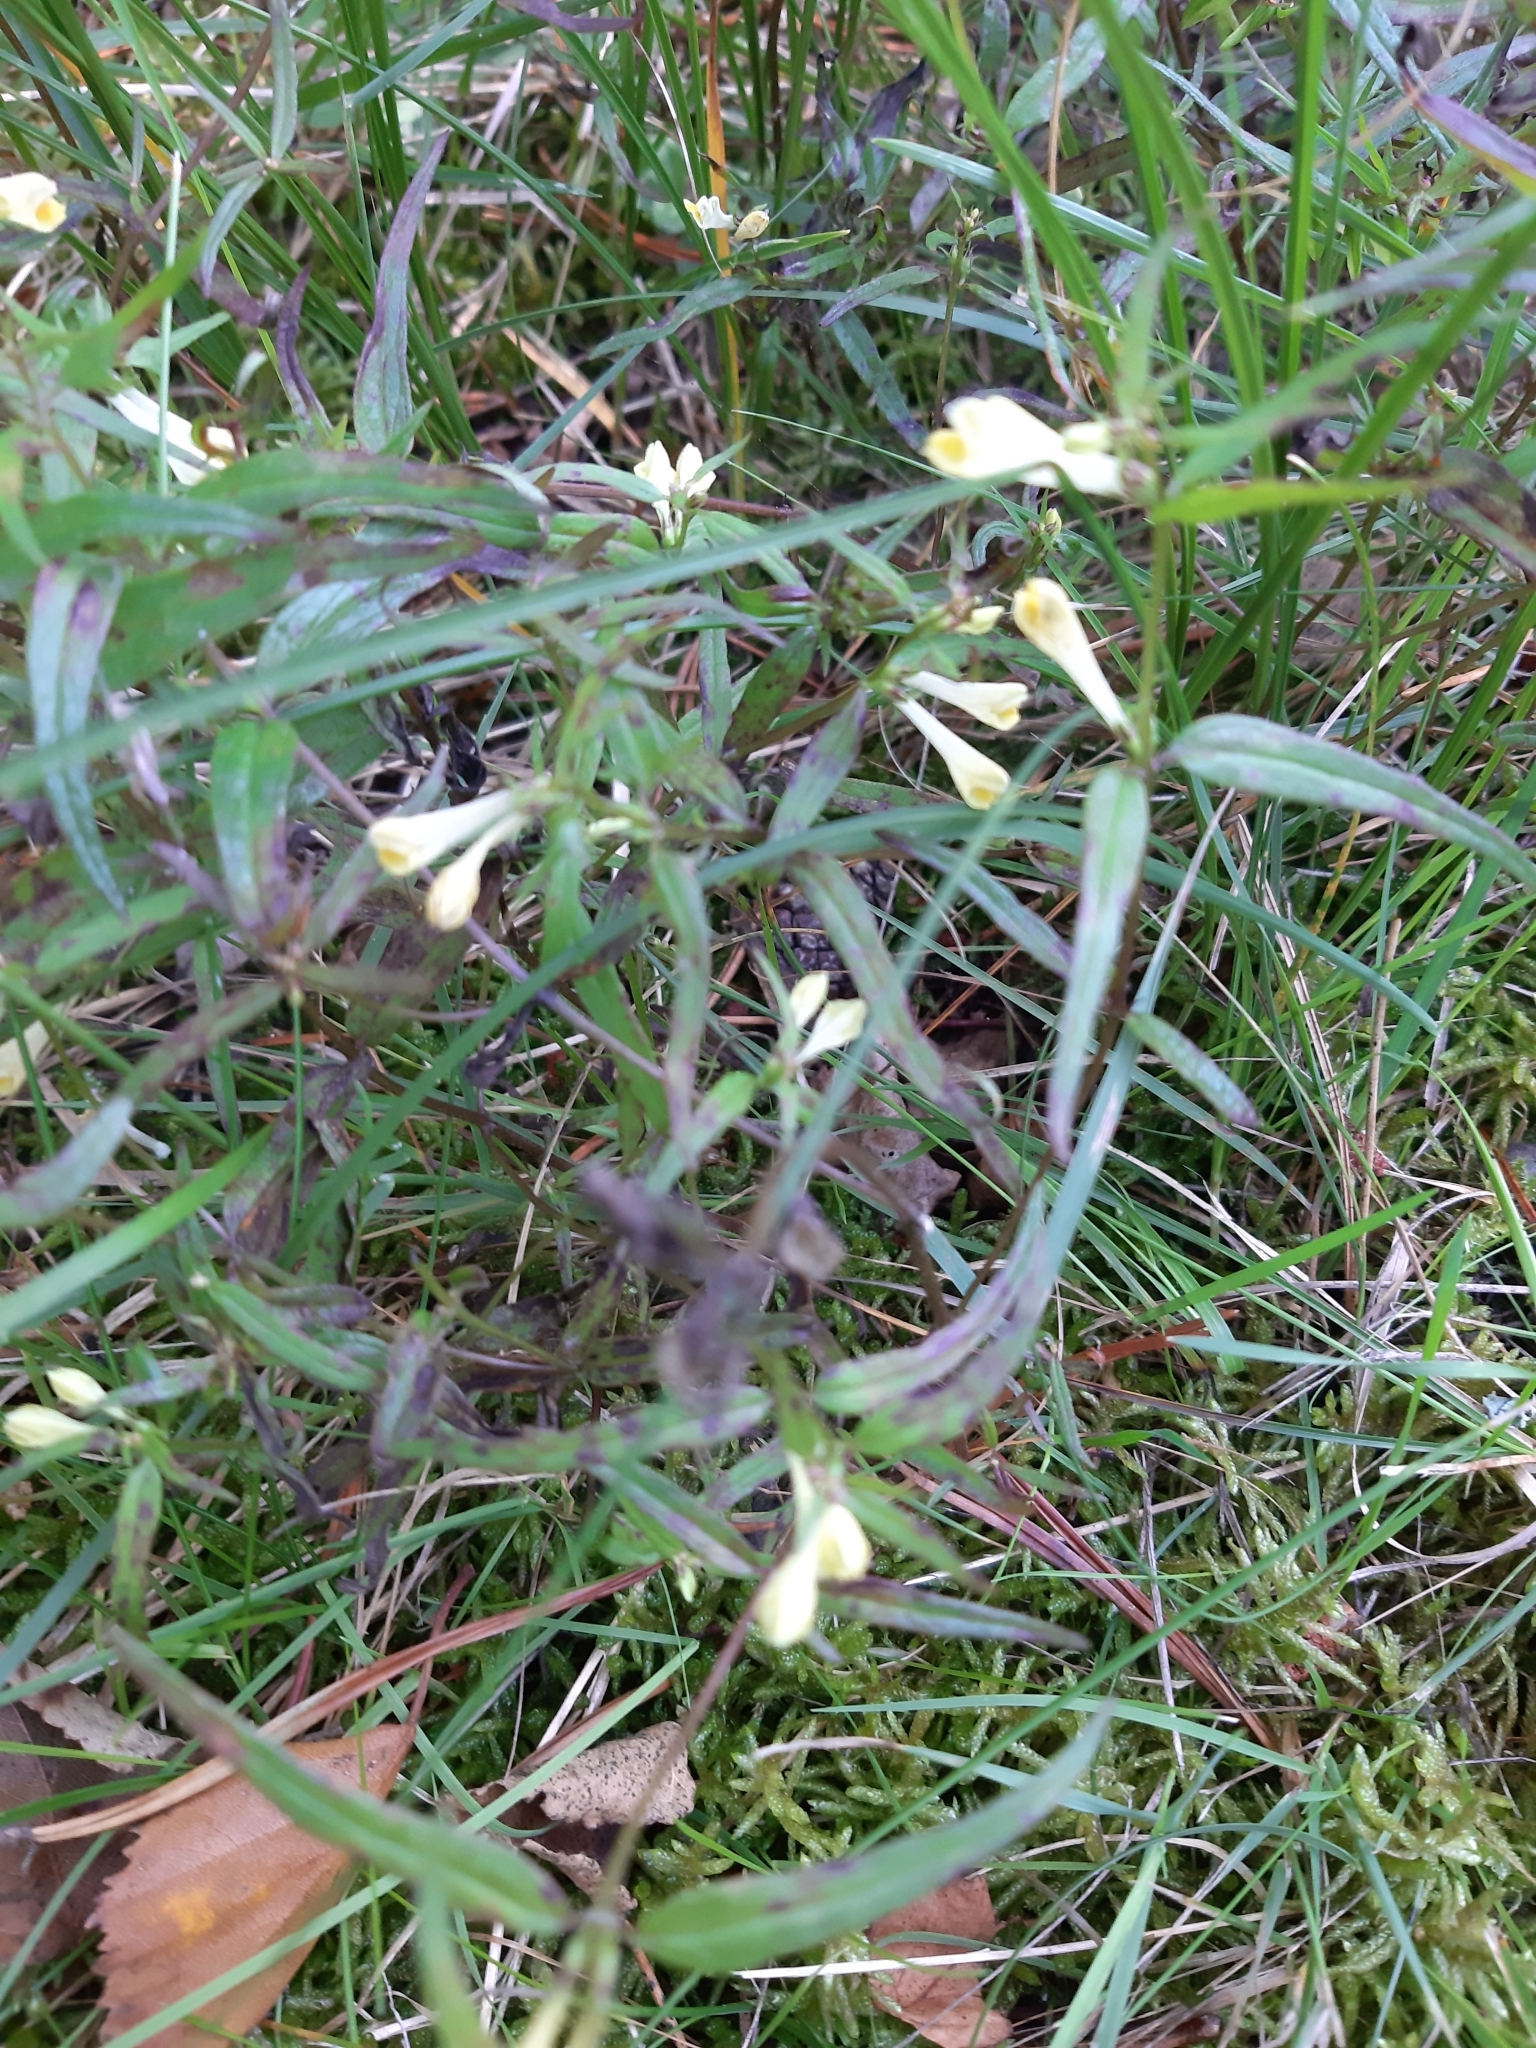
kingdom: Plantae
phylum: Tracheophyta
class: Magnoliopsida
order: Lamiales
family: Orobanchaceae
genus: Melampyrum
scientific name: Melampyrum pratense
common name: Common cow-wheat
